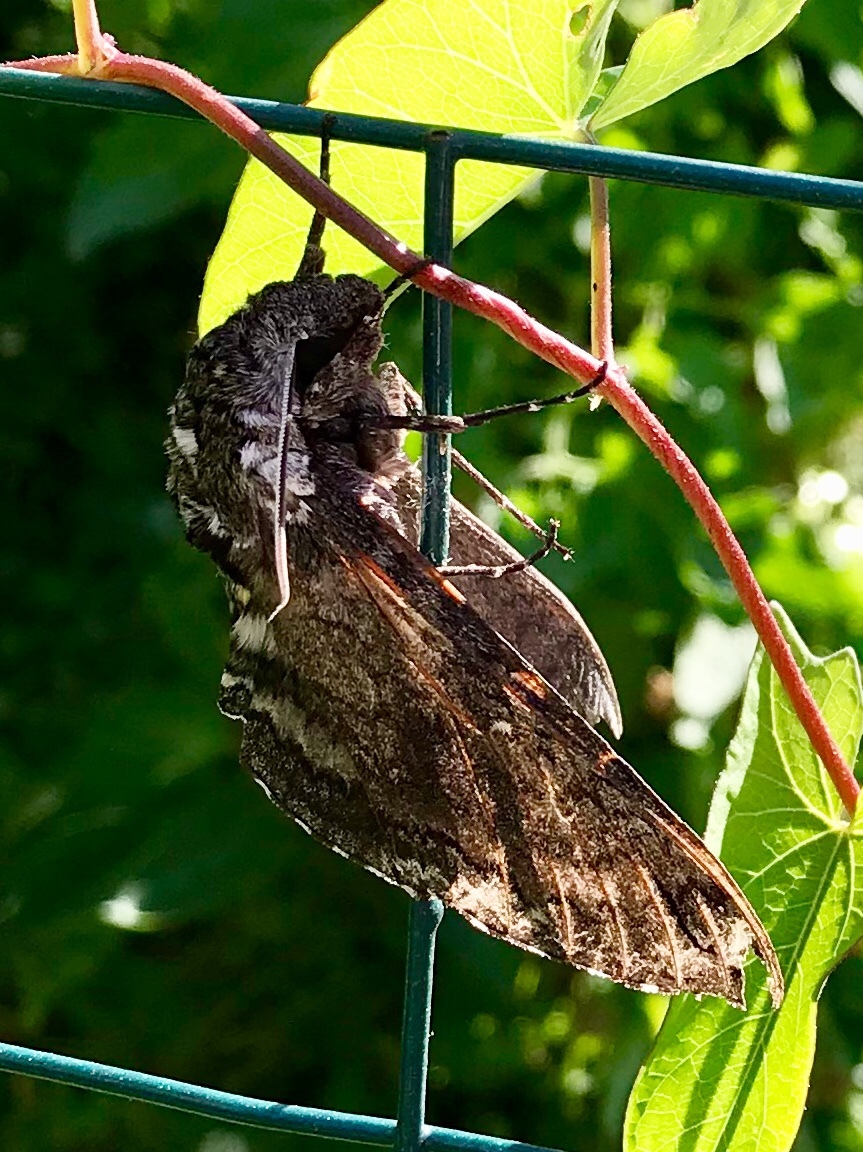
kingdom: Animalia
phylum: Arthropoda
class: Insecta
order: Lepidoptera
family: Sphingidae
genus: Manduca
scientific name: Manduca sexta
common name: Carolina sphinx
